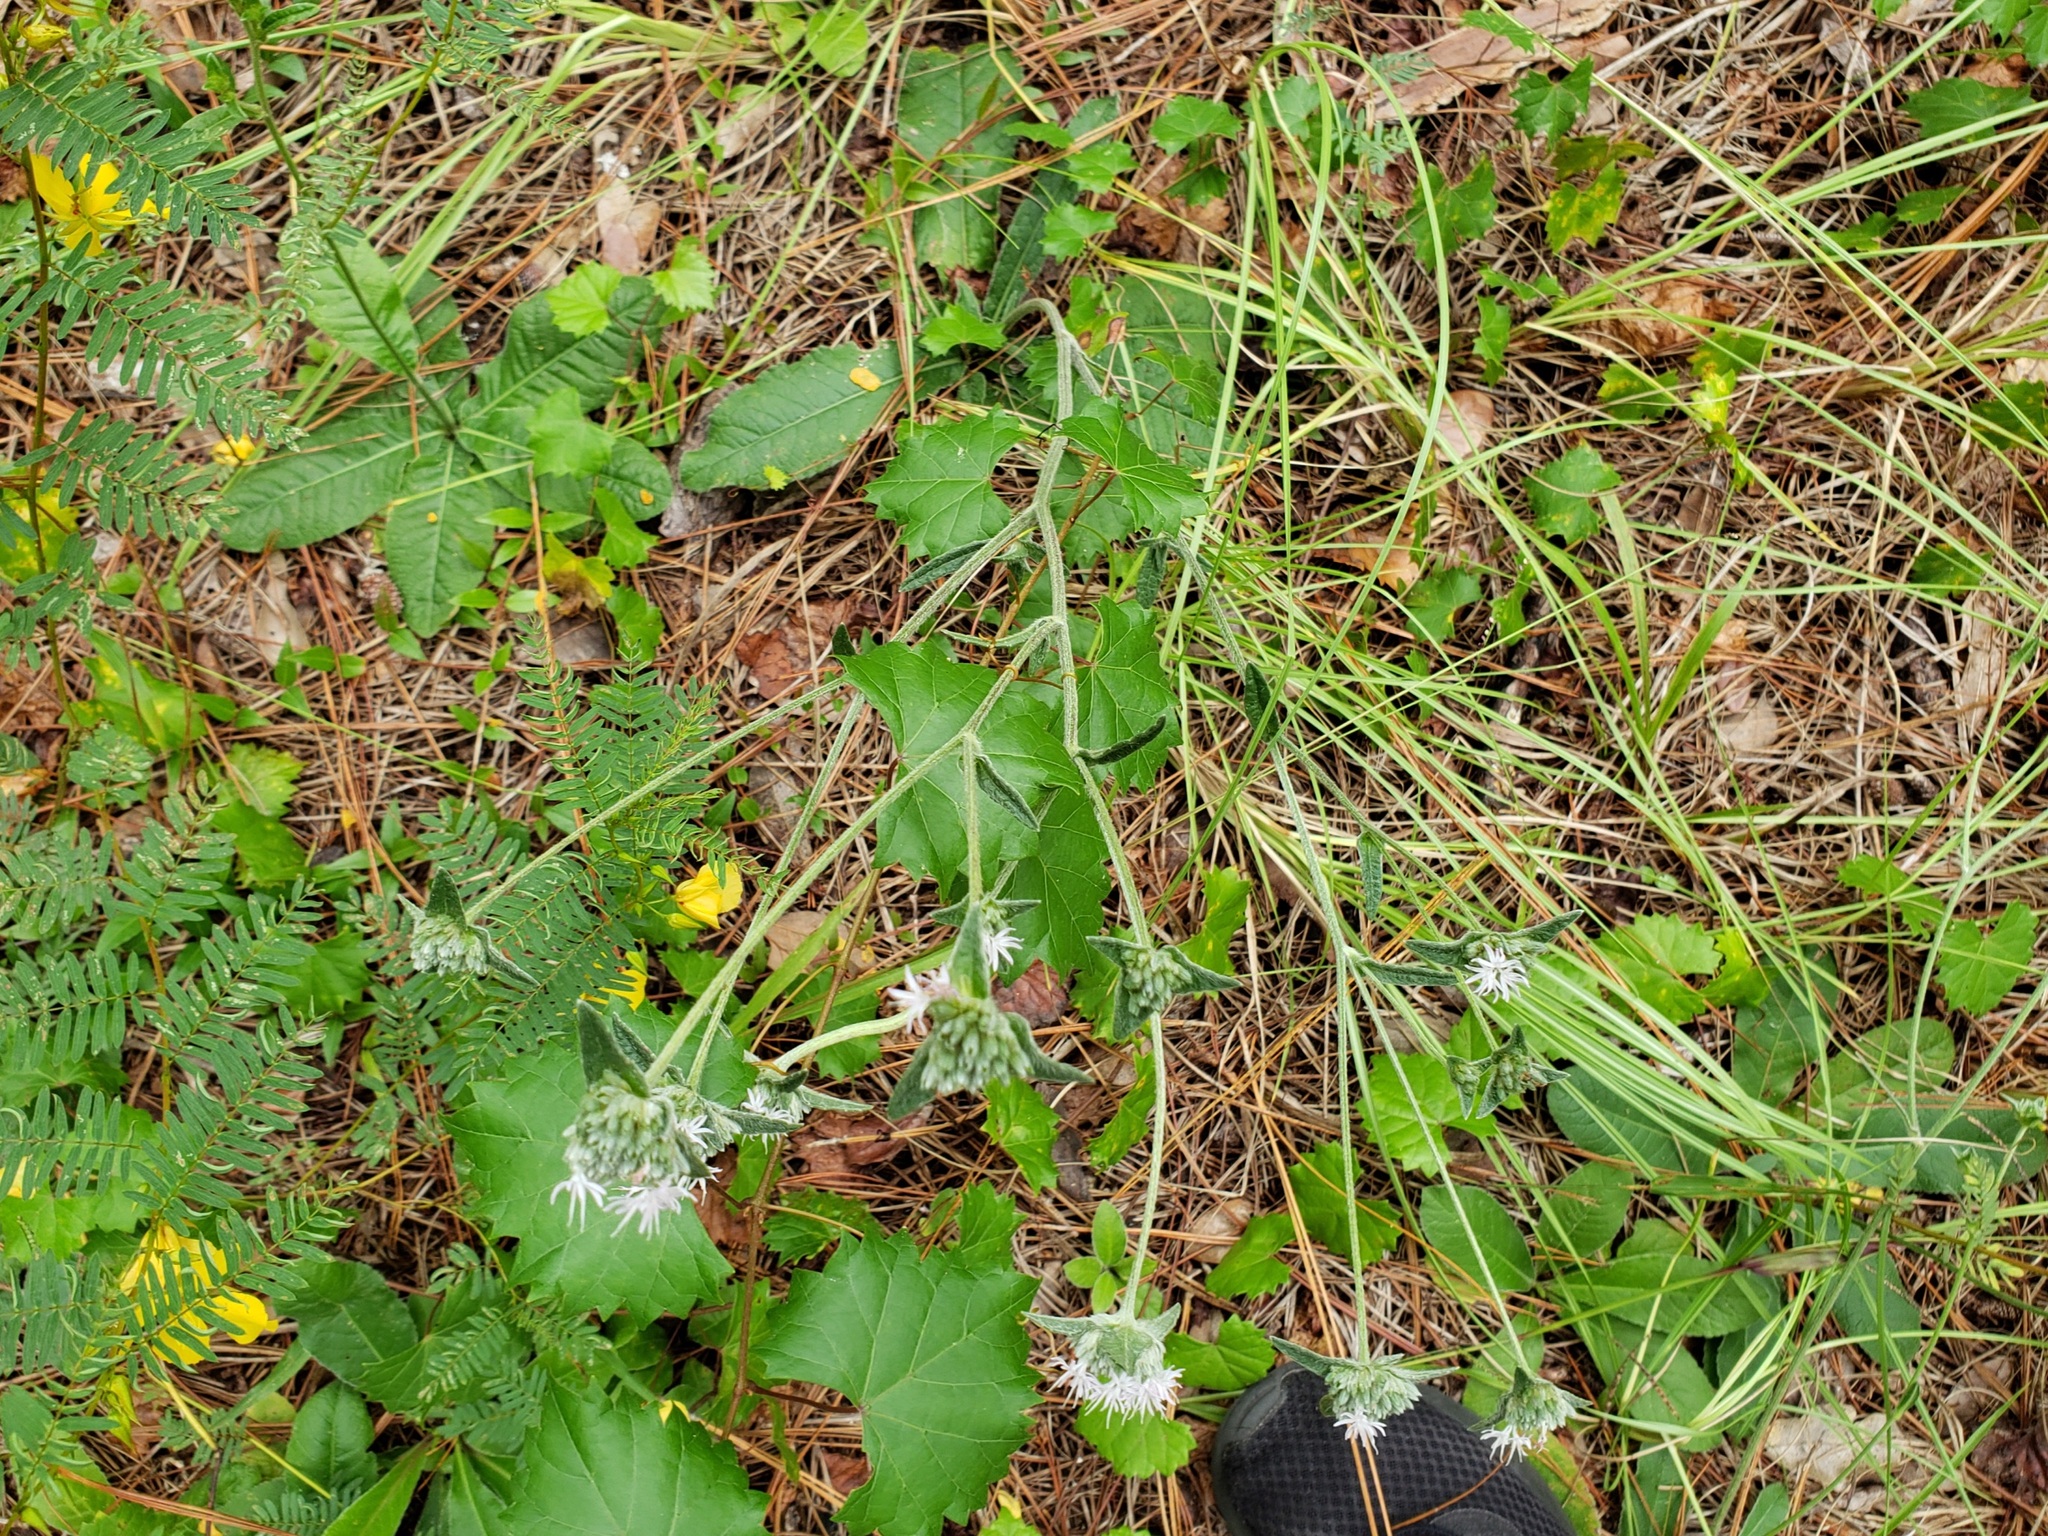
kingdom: Plantae
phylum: Tracheophyta
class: Magnoliopsida
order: Asterales
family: Asteraceae
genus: Elephantopus
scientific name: Elephantopus elatus
